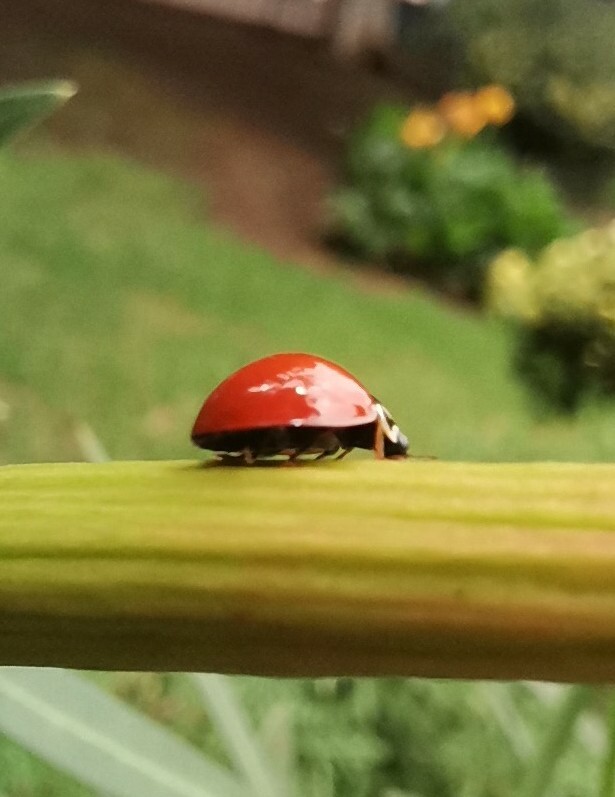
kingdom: Animalia
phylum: Arthropoda
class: Insecta
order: Coleoptera
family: Coccinellidae
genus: Cycloneda
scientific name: Cycloneda sanguinea
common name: Ladybird beetle
